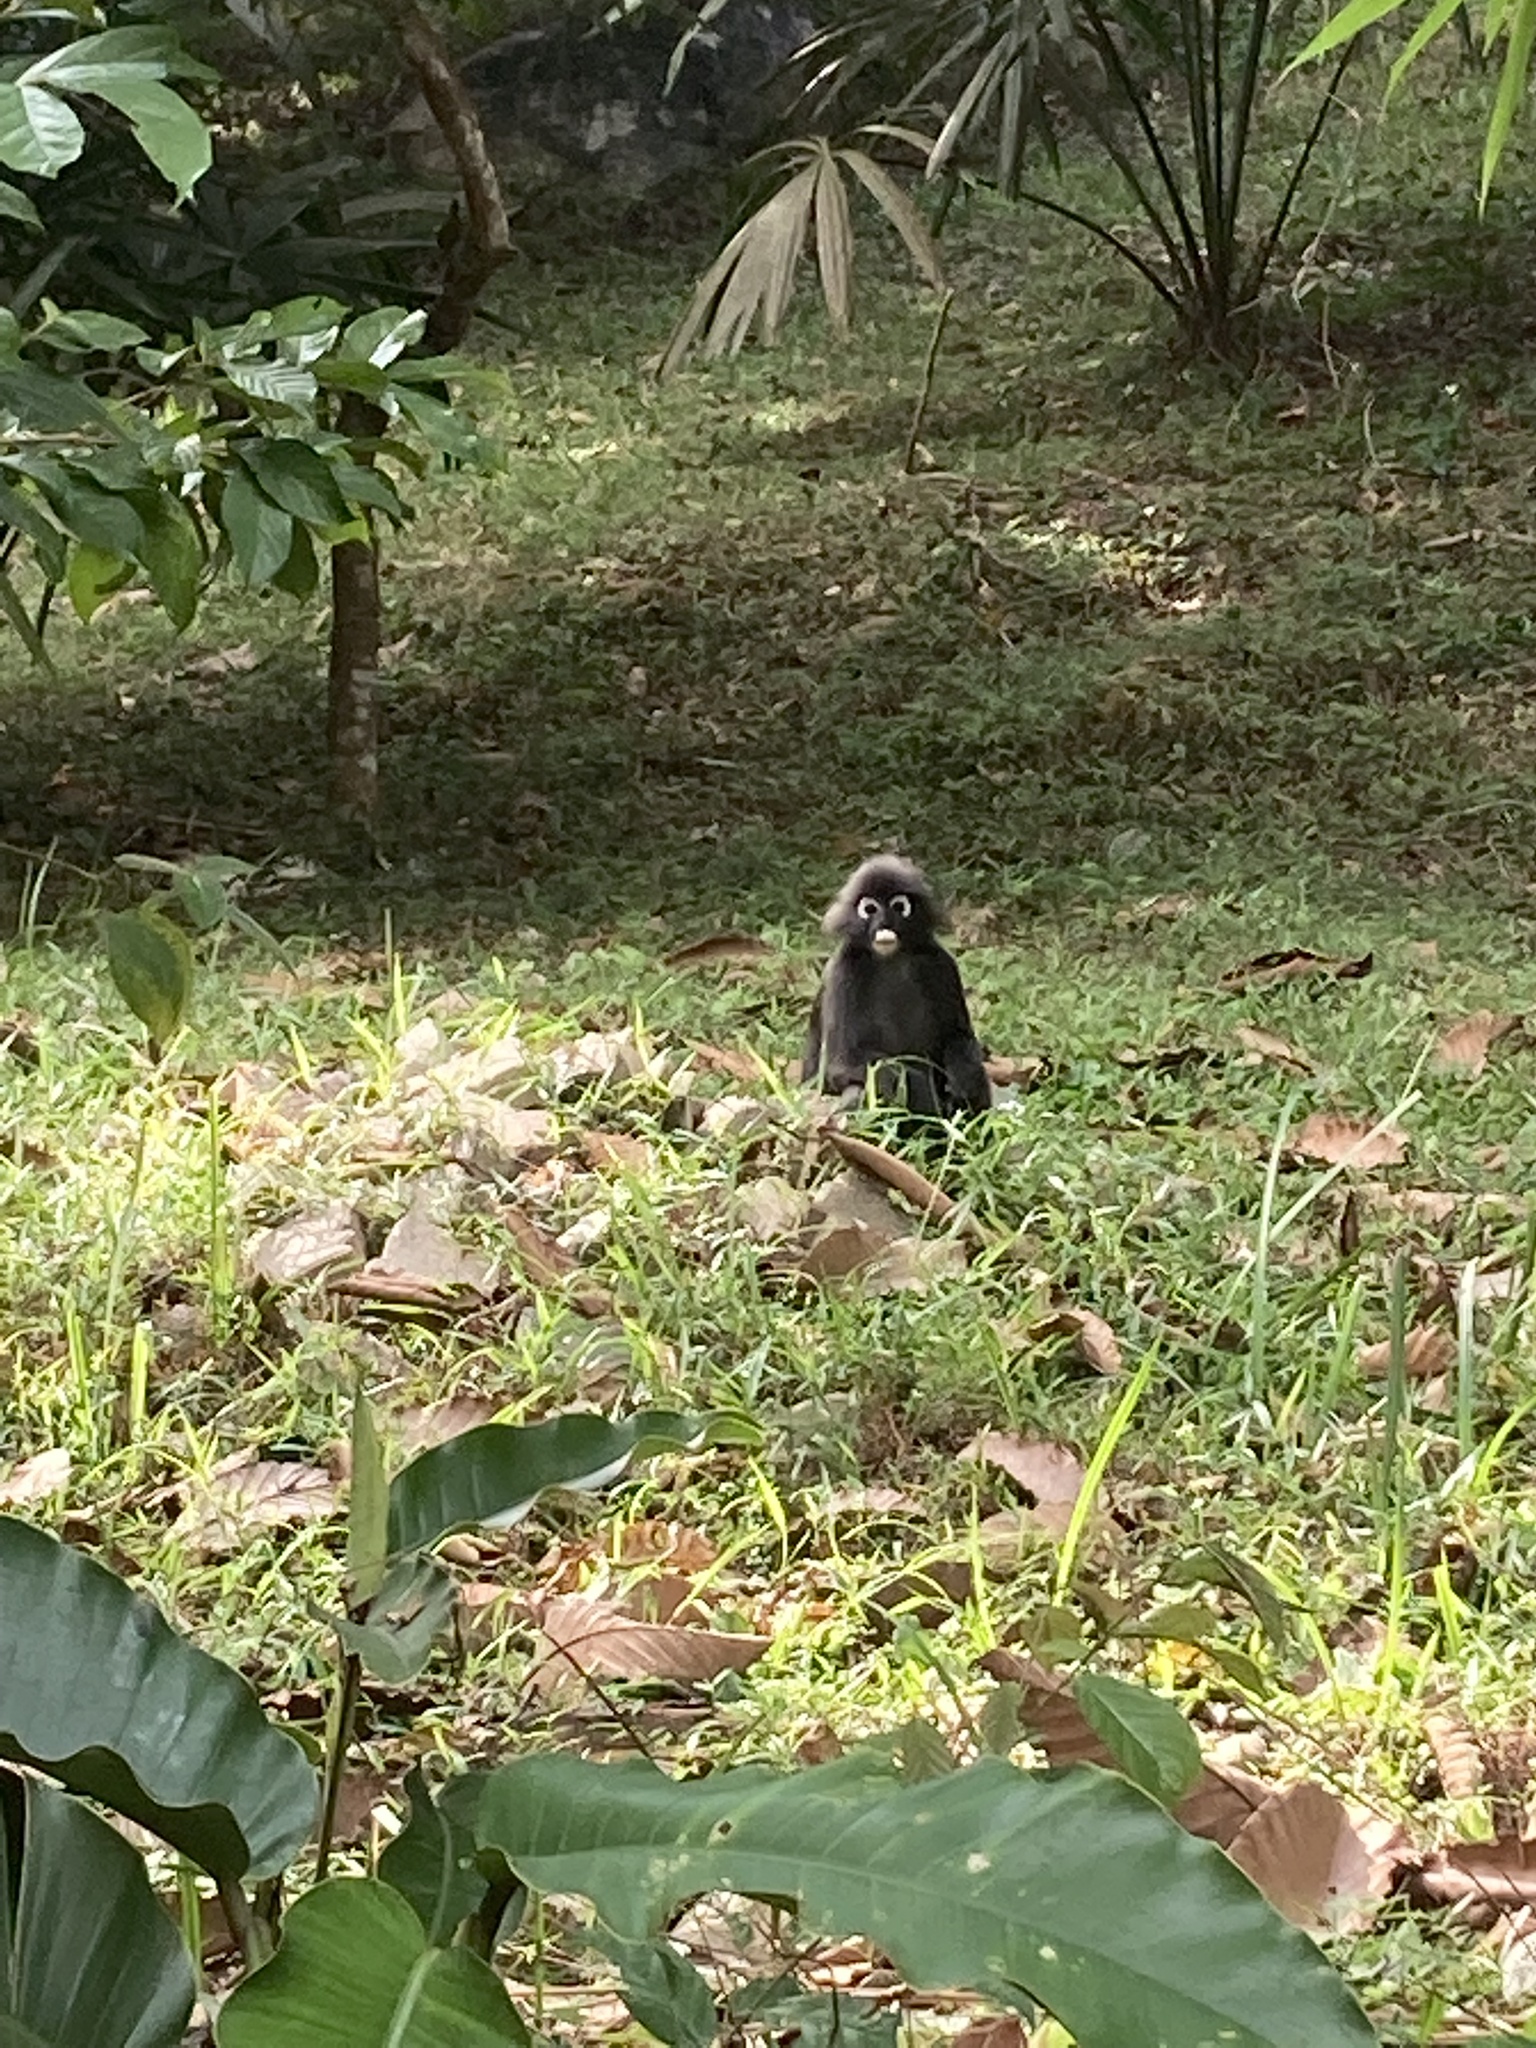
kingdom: Animalia
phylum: Chordata
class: Mammalia
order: Primates
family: Cercopithecidae
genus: Trachypithecus
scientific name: Trachypithecus obscurus
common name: Dusky leaf-monkey
